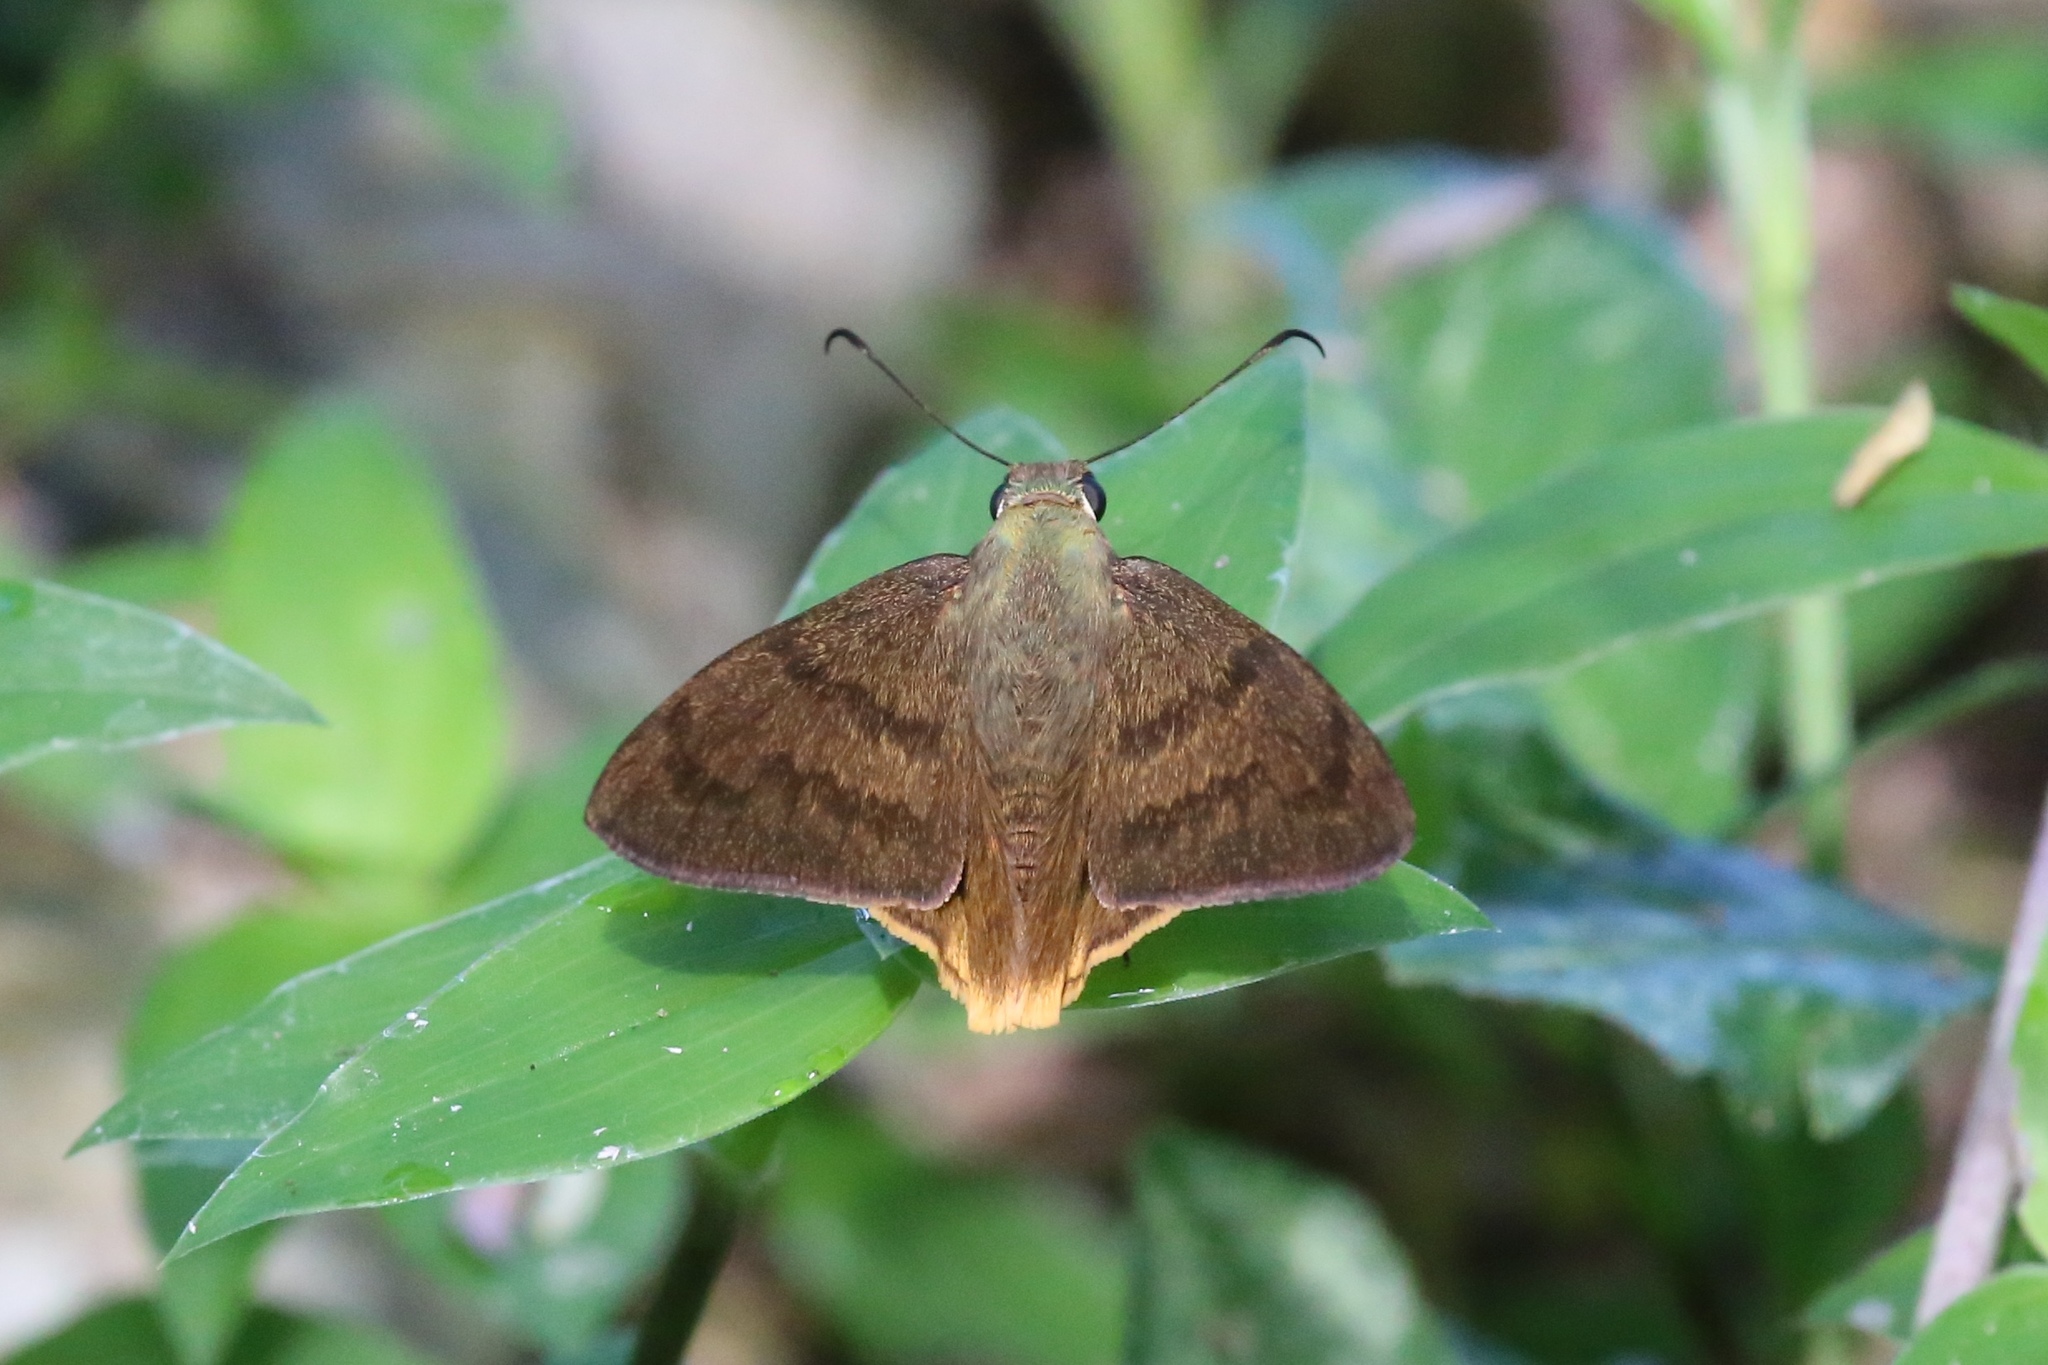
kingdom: Animalia
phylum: Arthropoda
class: Insecta
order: Lepidoptera
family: Hesperiidae
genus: Astraptes
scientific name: Astraptes anaphus
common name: Yellow-tipped flasher
